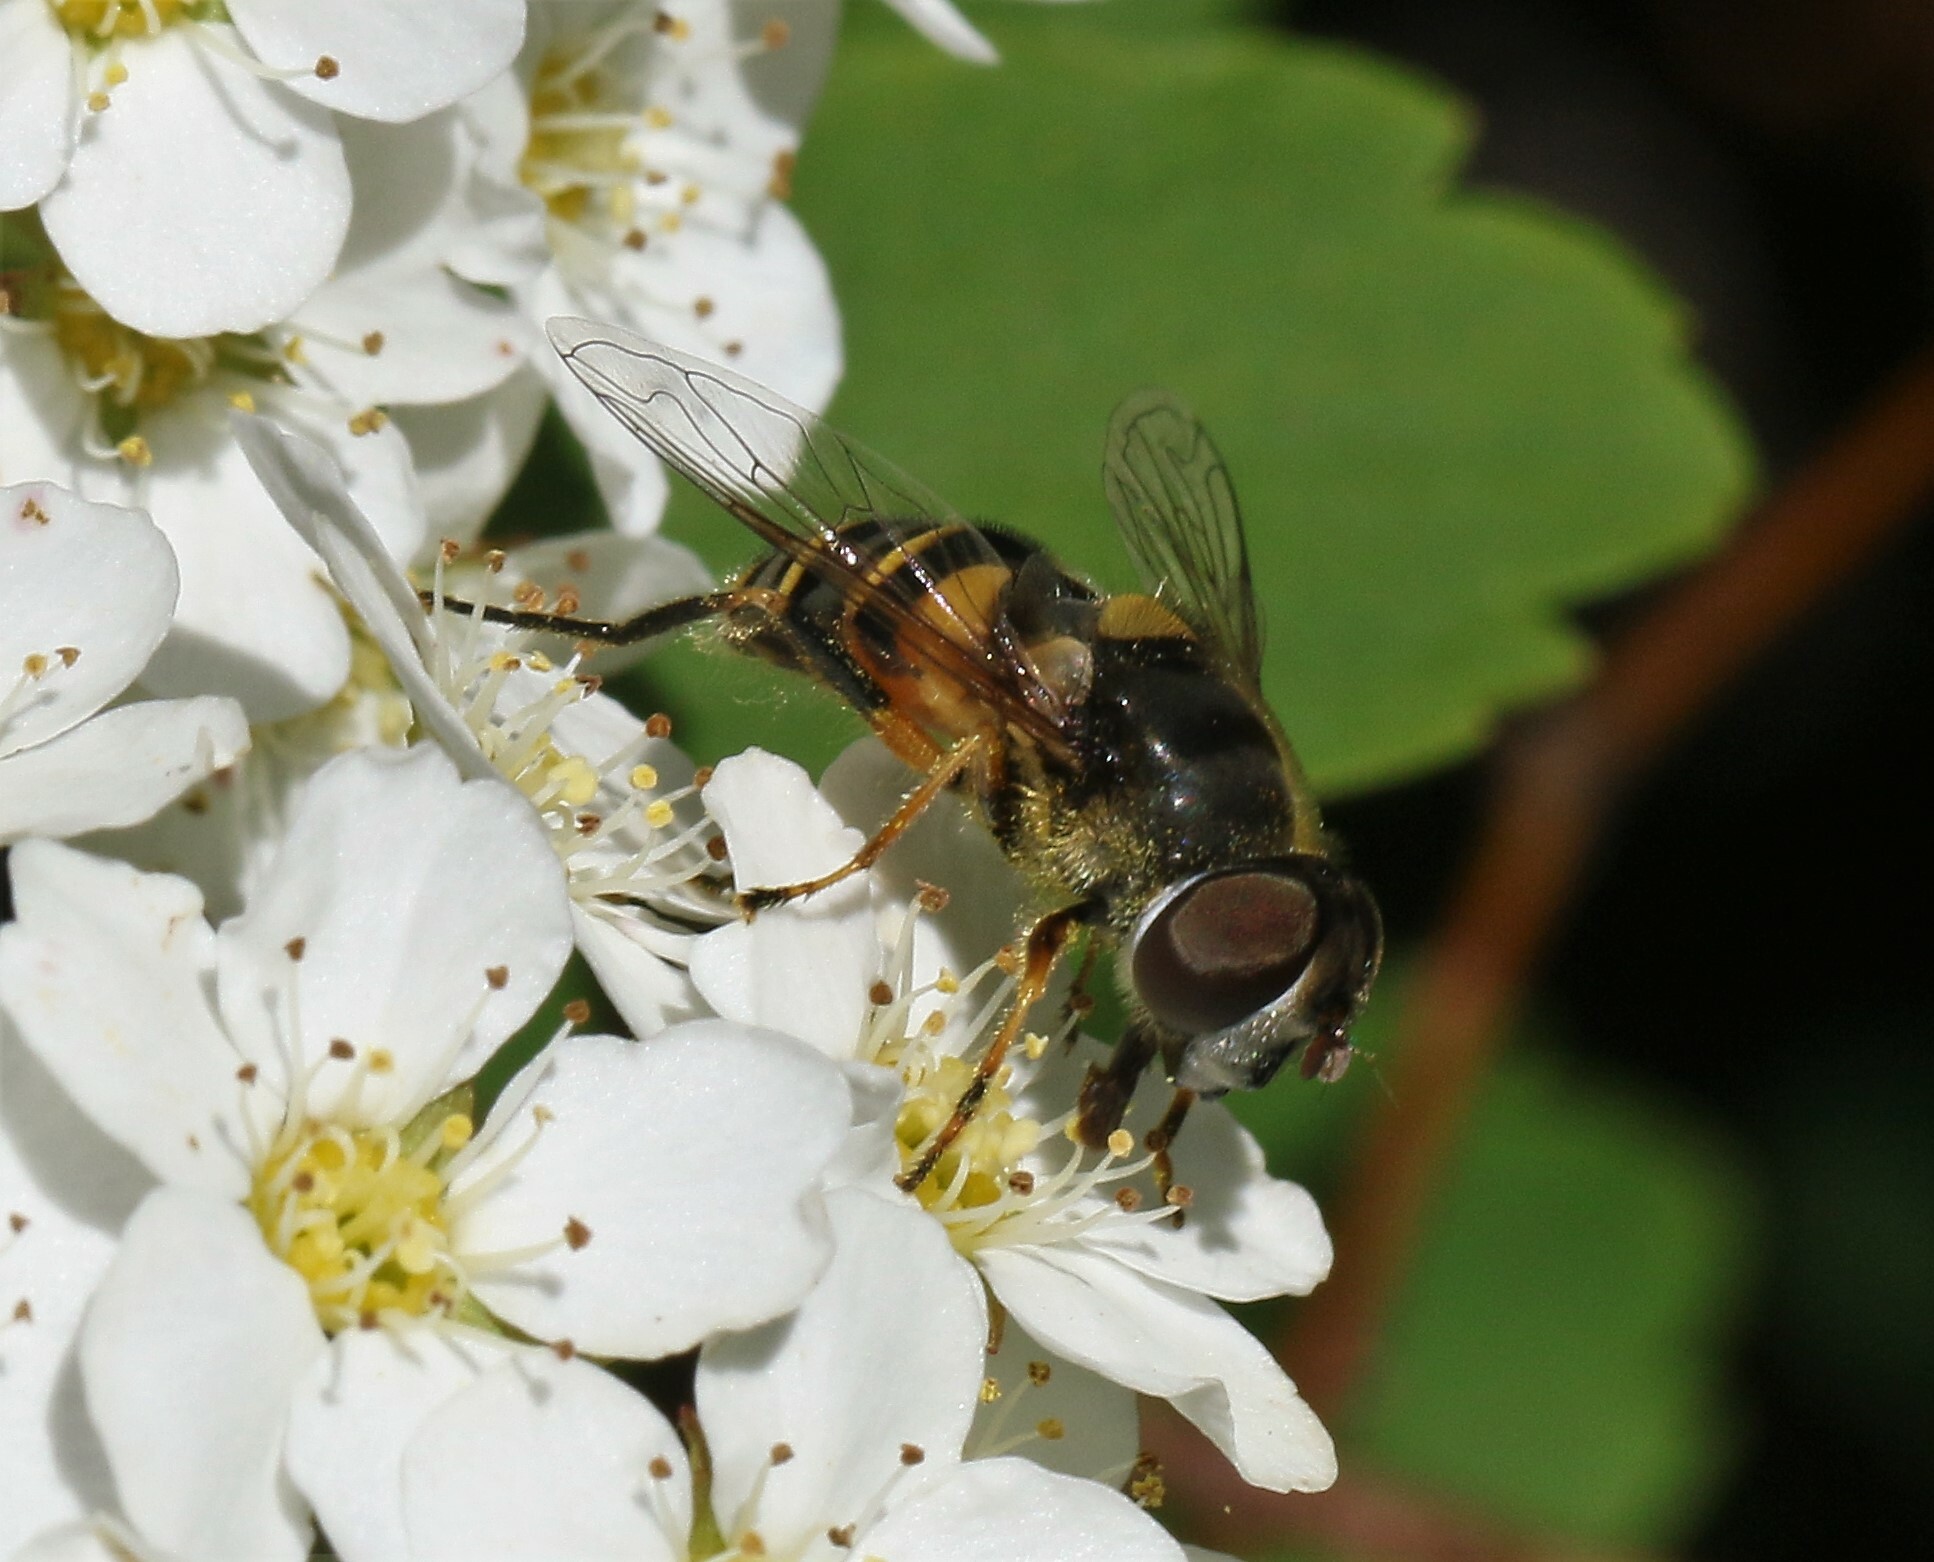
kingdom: Animalia
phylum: Arthropoda
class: Insecta
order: Diptera
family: Syrphidae
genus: Eristalis
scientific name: Eristalis transversa
